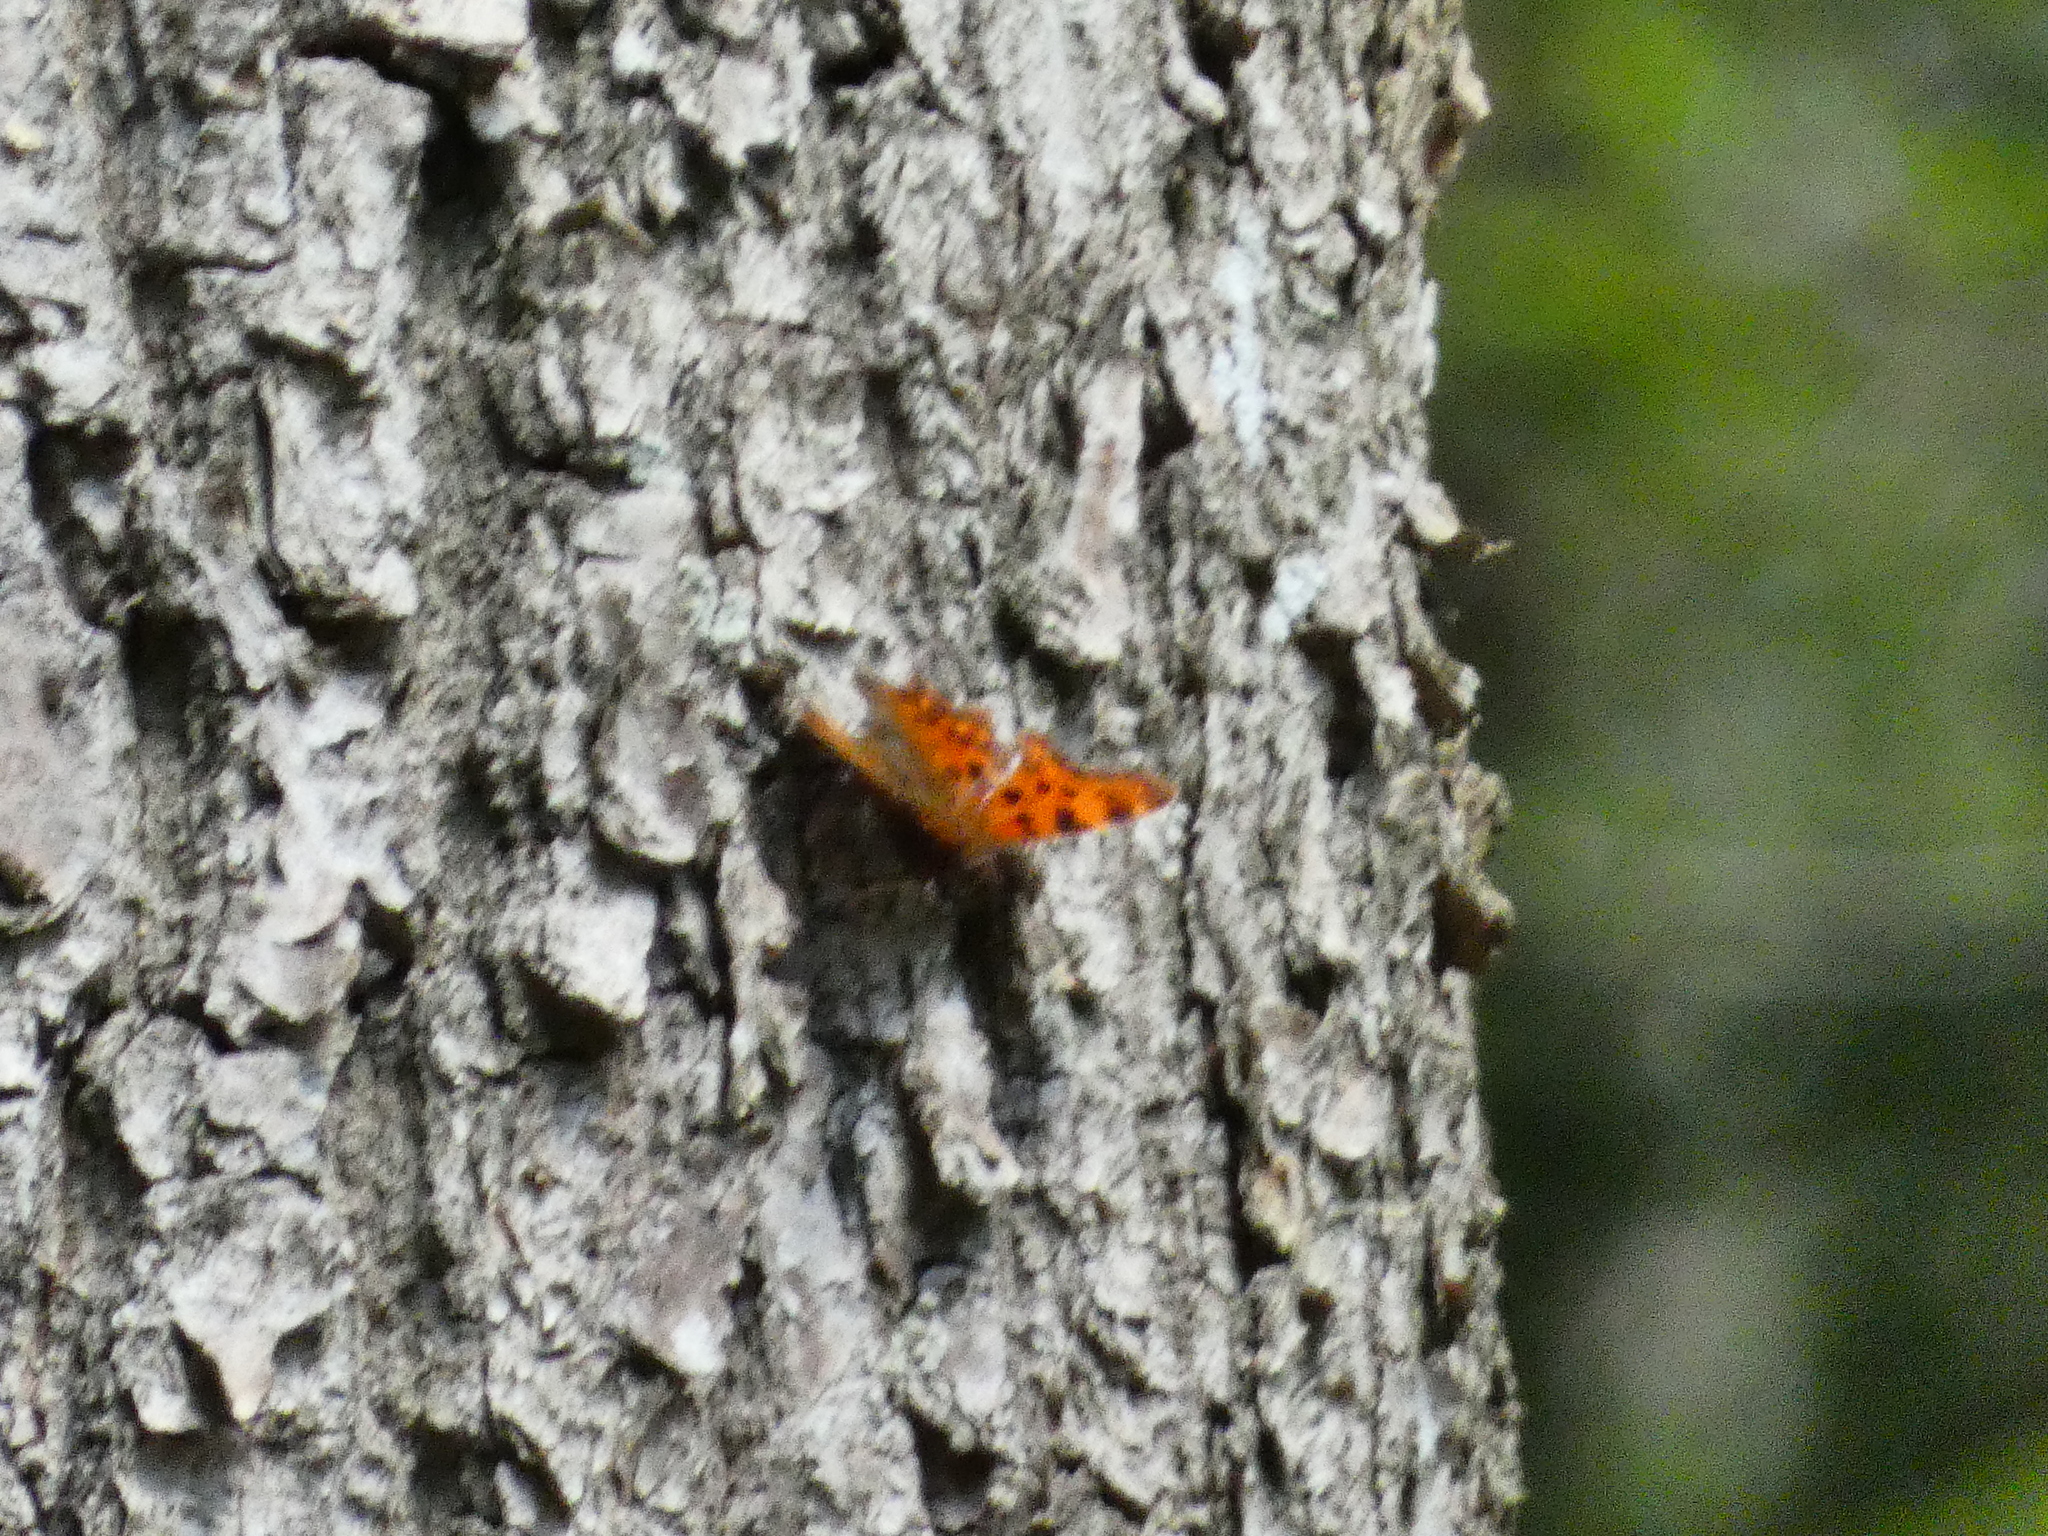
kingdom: Animalia
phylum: Arthropoda
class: Insecta
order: Lepidoptera
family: Nymphalidae
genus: Polygonia
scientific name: Polygonia c-album
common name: Comma
